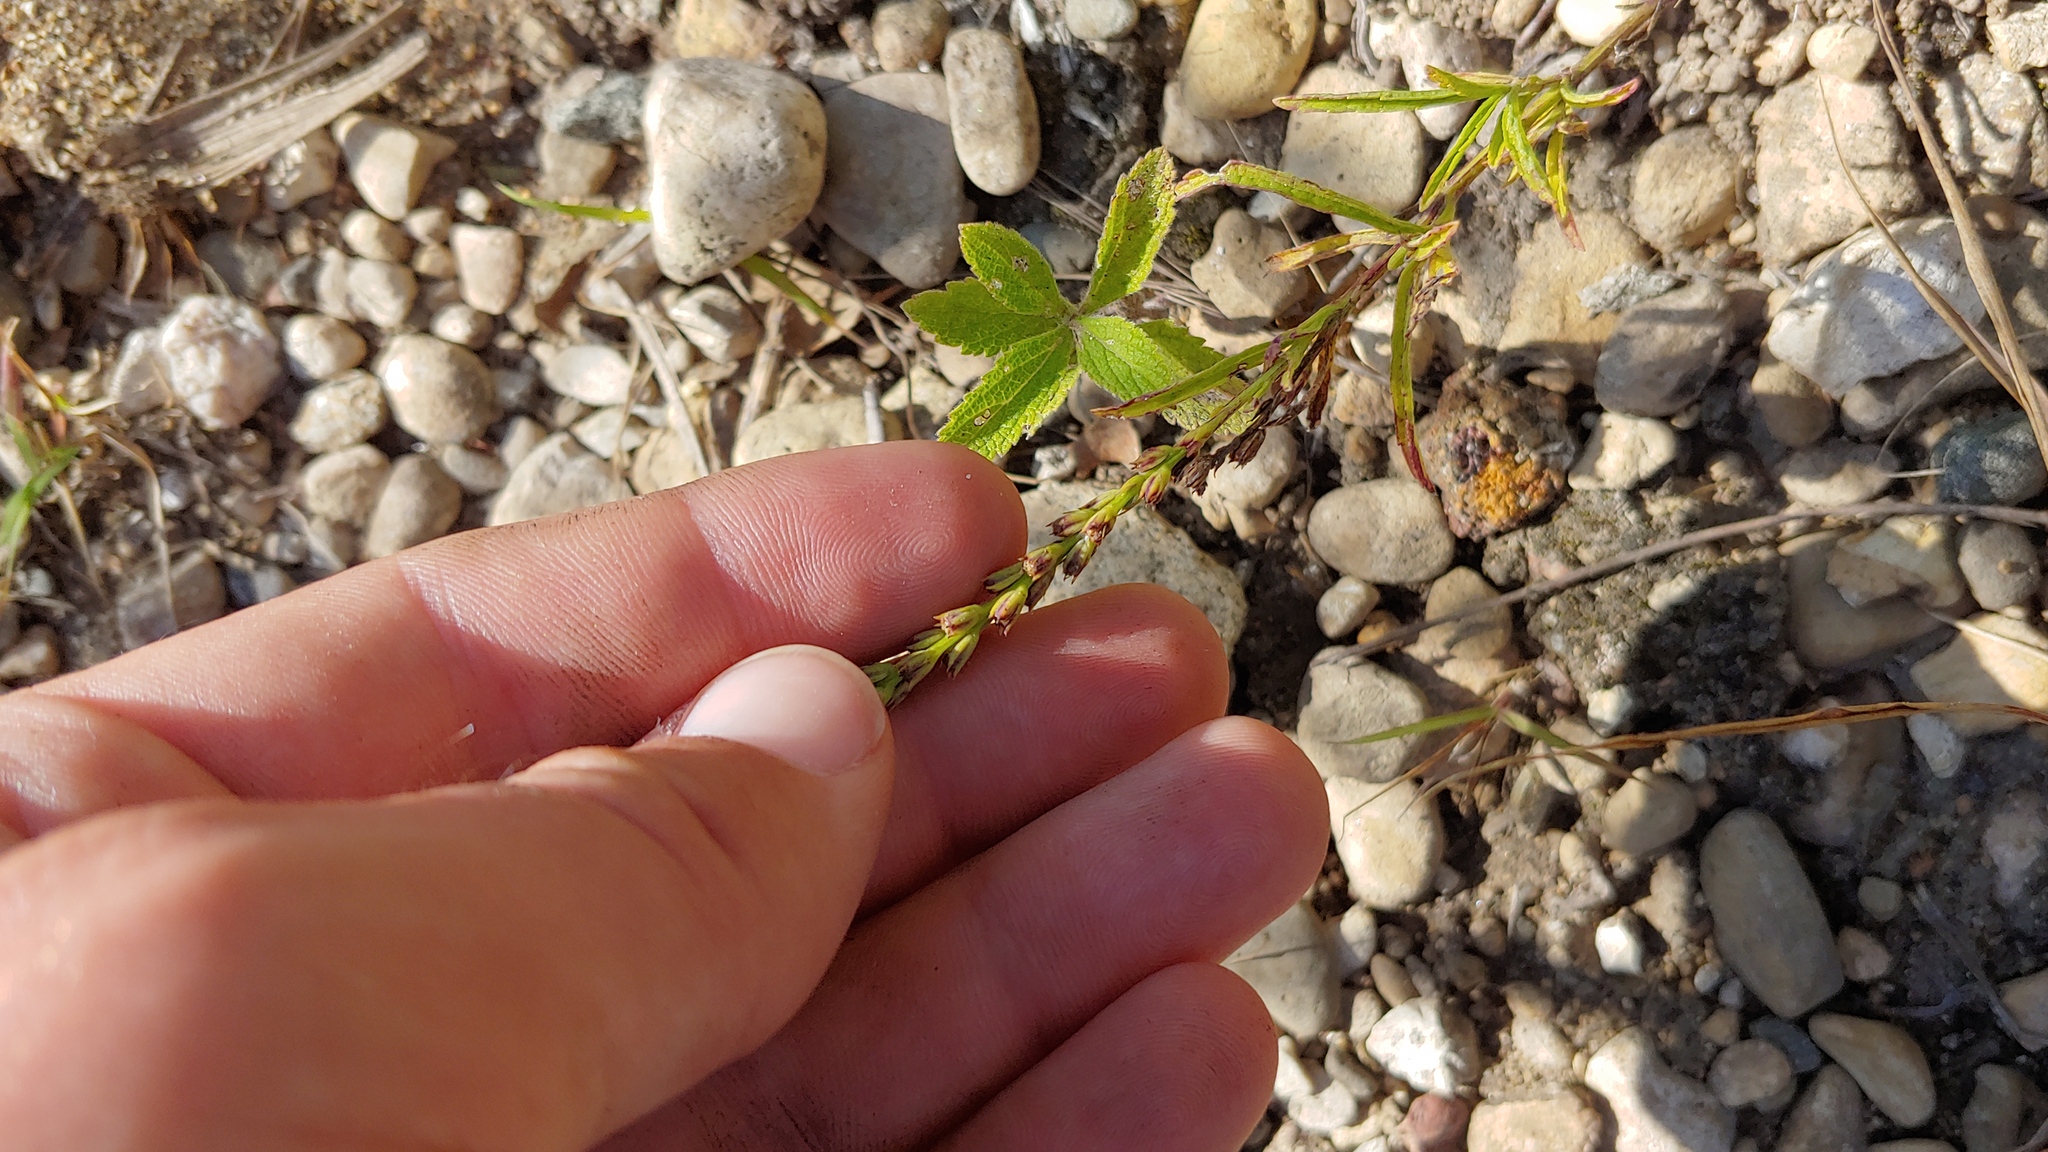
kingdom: Plantae
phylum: Tracheophyta
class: Magnoliopsida
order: Lamiales
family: Verbenaceae
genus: Verbena
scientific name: Verbena simplex
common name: Narrow-leaf vervain
